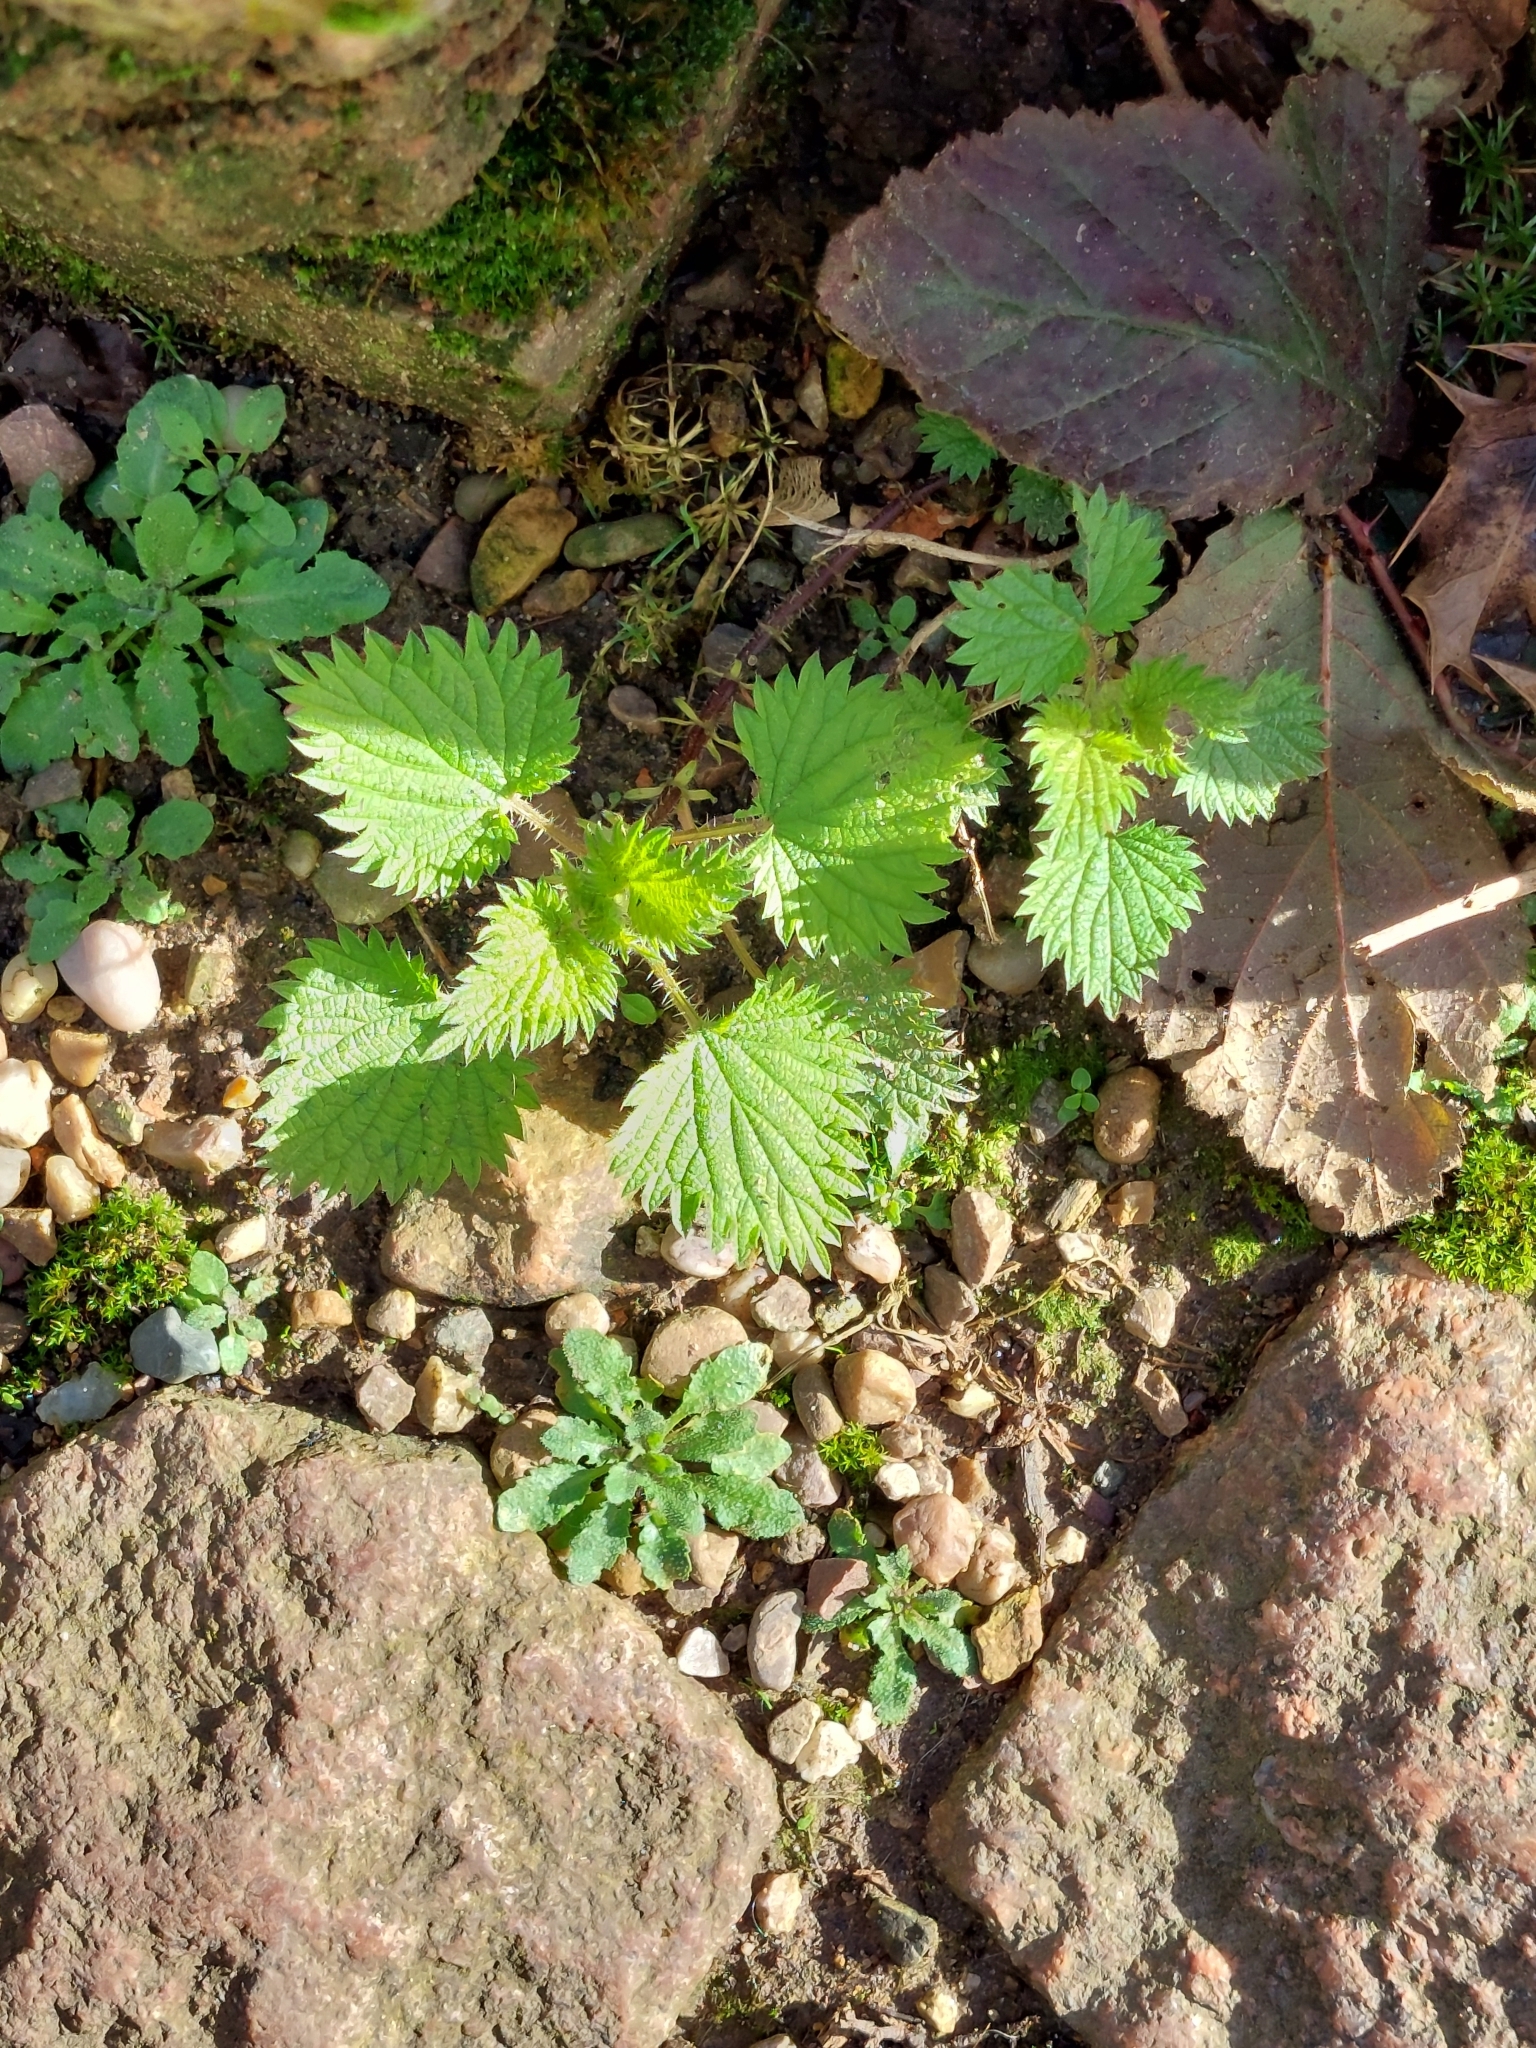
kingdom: Plantae
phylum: Tracheophyta
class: Magnoliopsida
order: Rosales
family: Urticaceae
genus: Urtica
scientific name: Urtica dioica
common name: Common nettle
